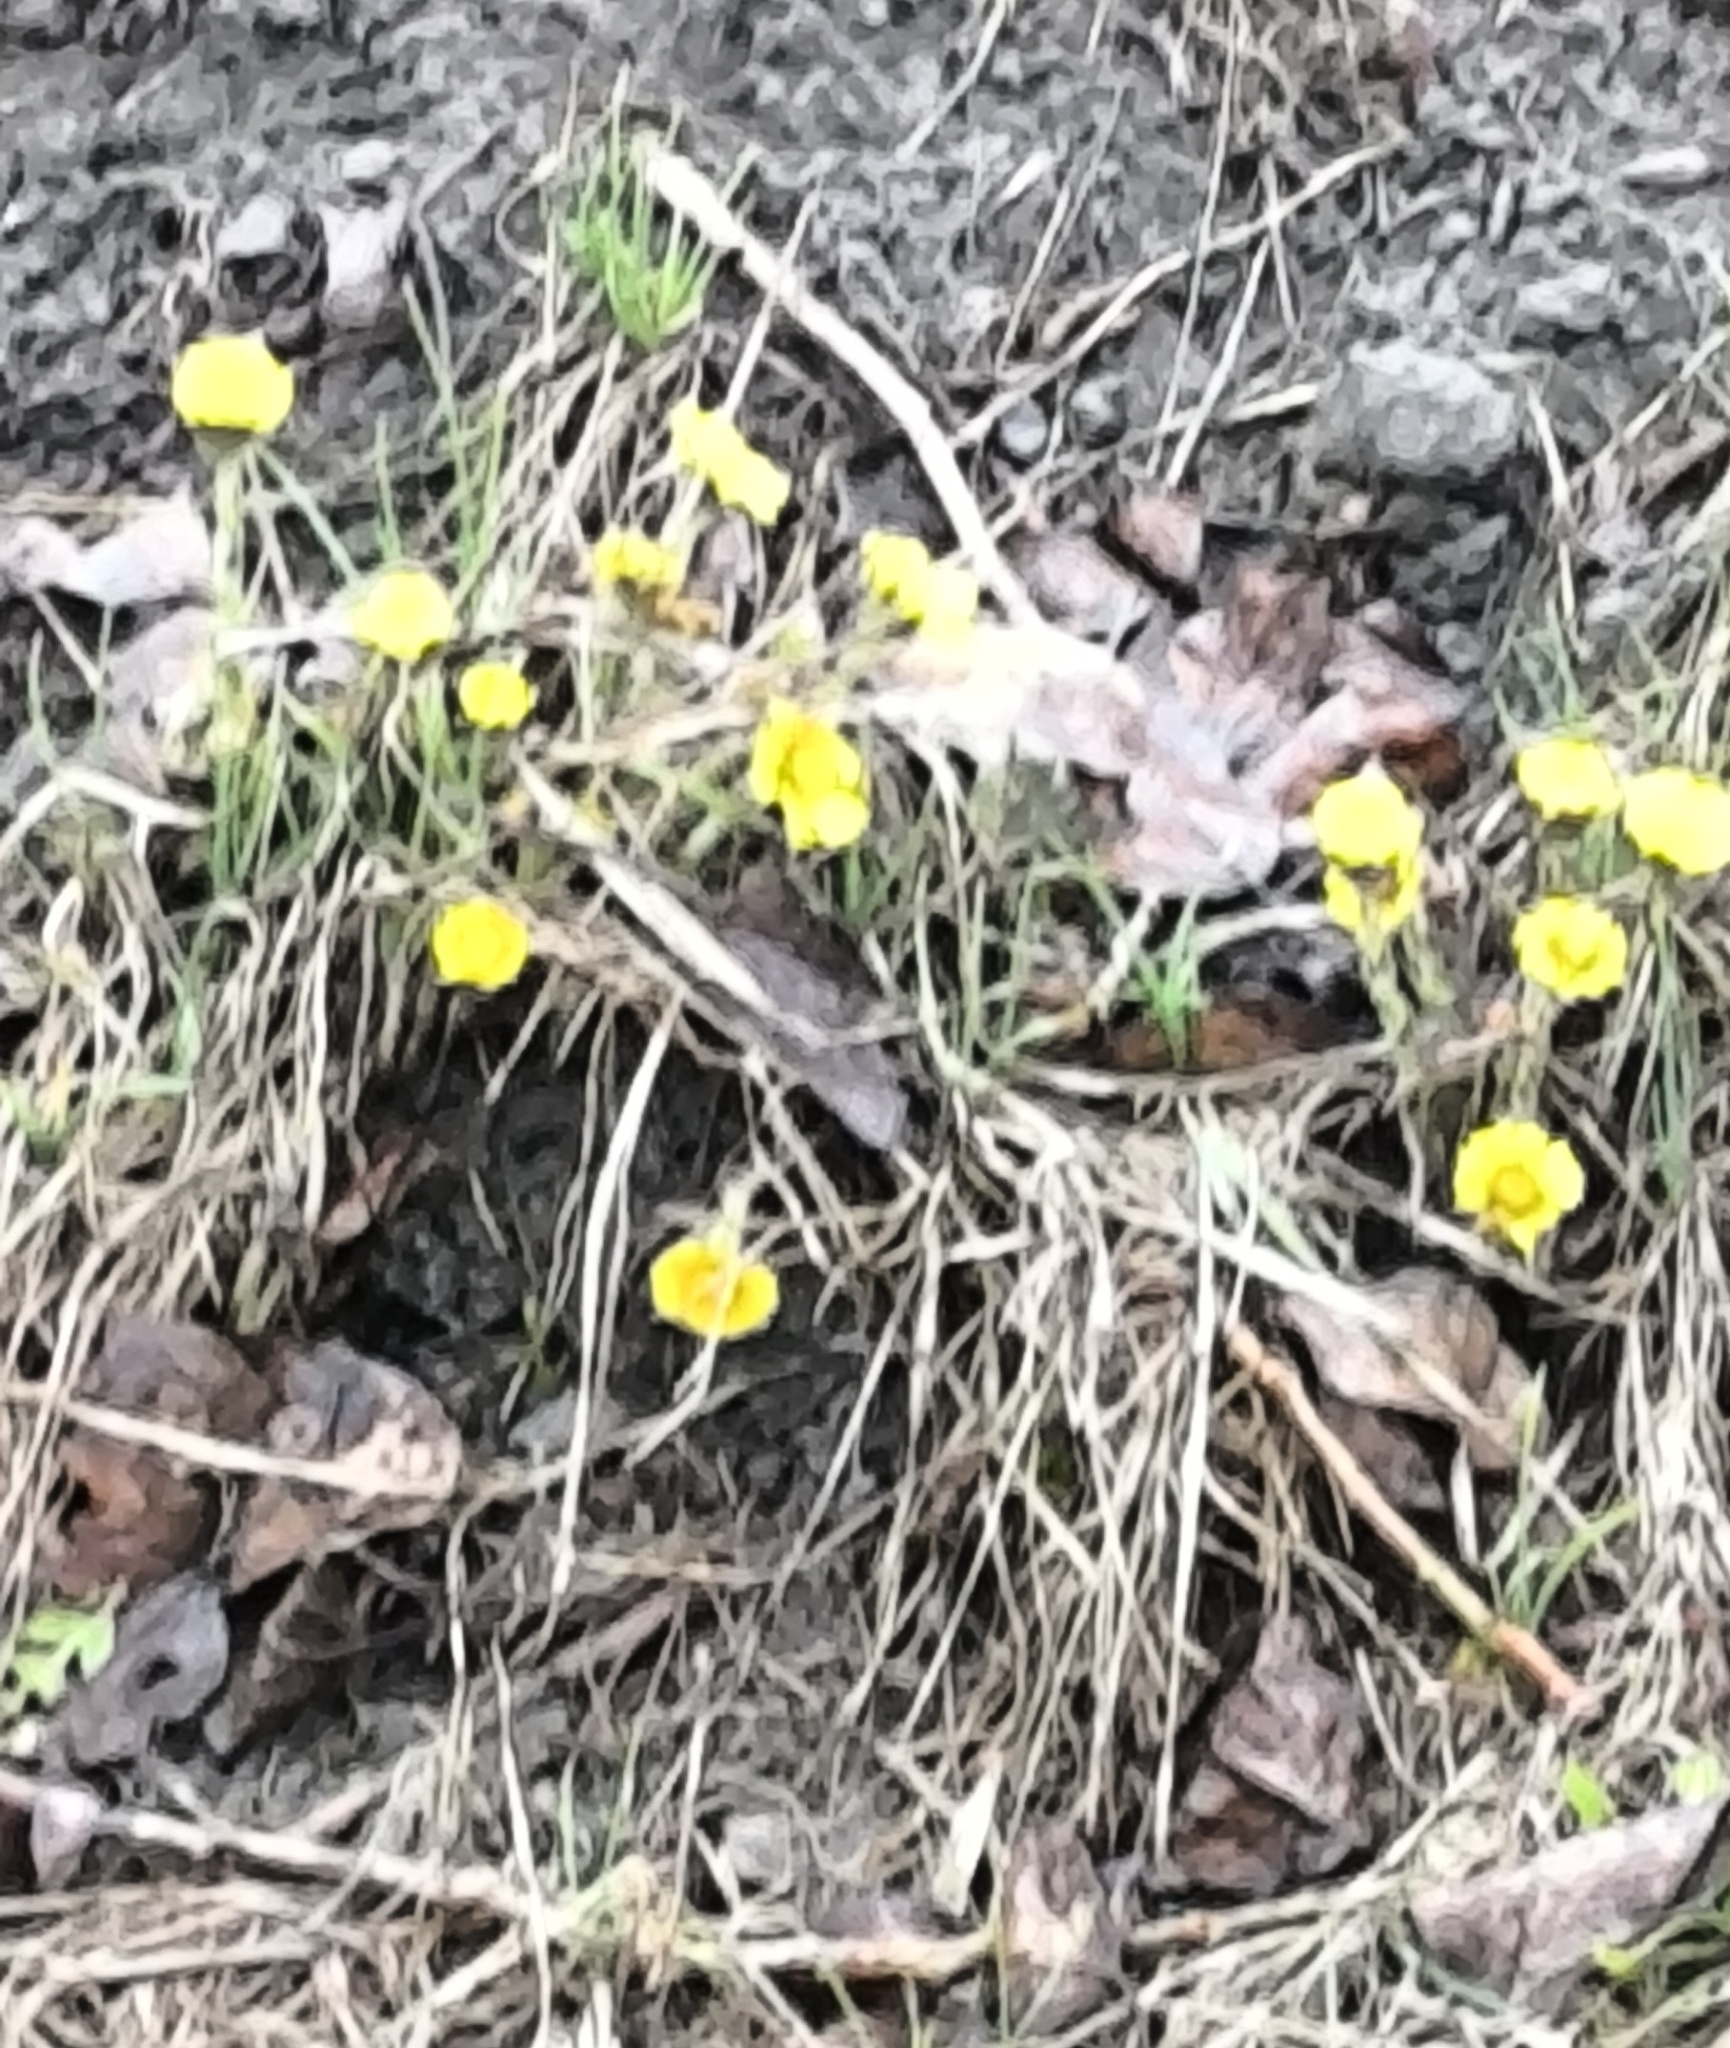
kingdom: Plantae
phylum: Tracheophyta
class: Magnoliopsida
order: Asterales
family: Asteraceae
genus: Tussilago
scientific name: Tussilago farfara
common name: Coltsfoot
